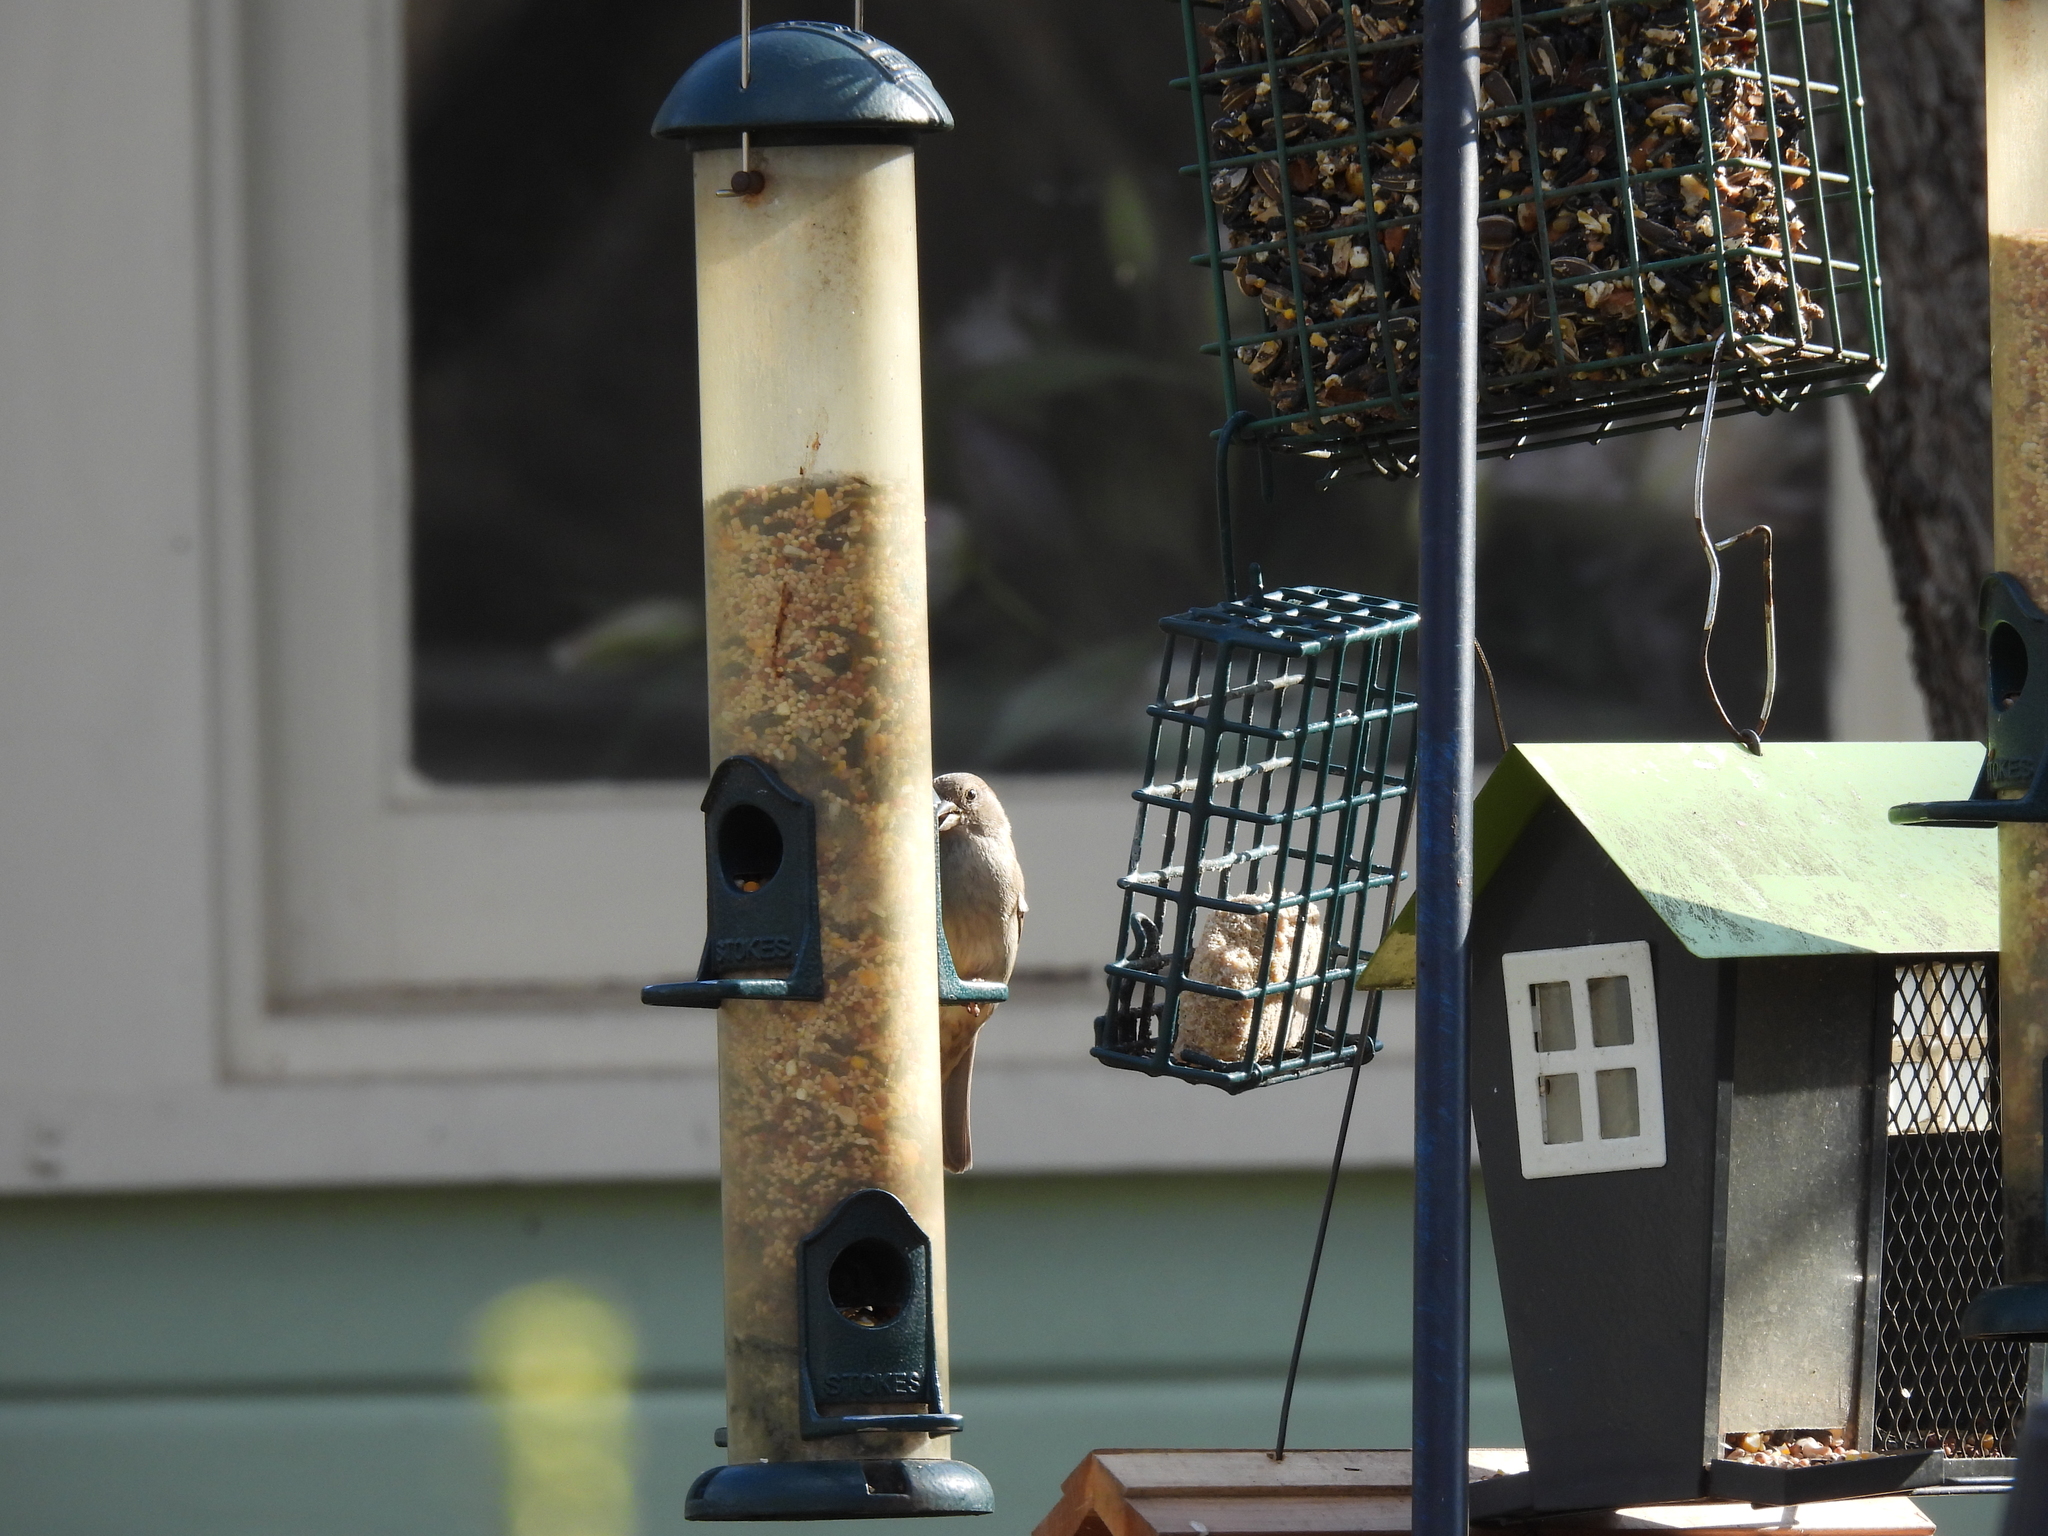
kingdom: Animalia
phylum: Chordata
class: Aves
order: Passeriformes
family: Passeridae
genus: Passer
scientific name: Passer domesticus
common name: House sparrow
